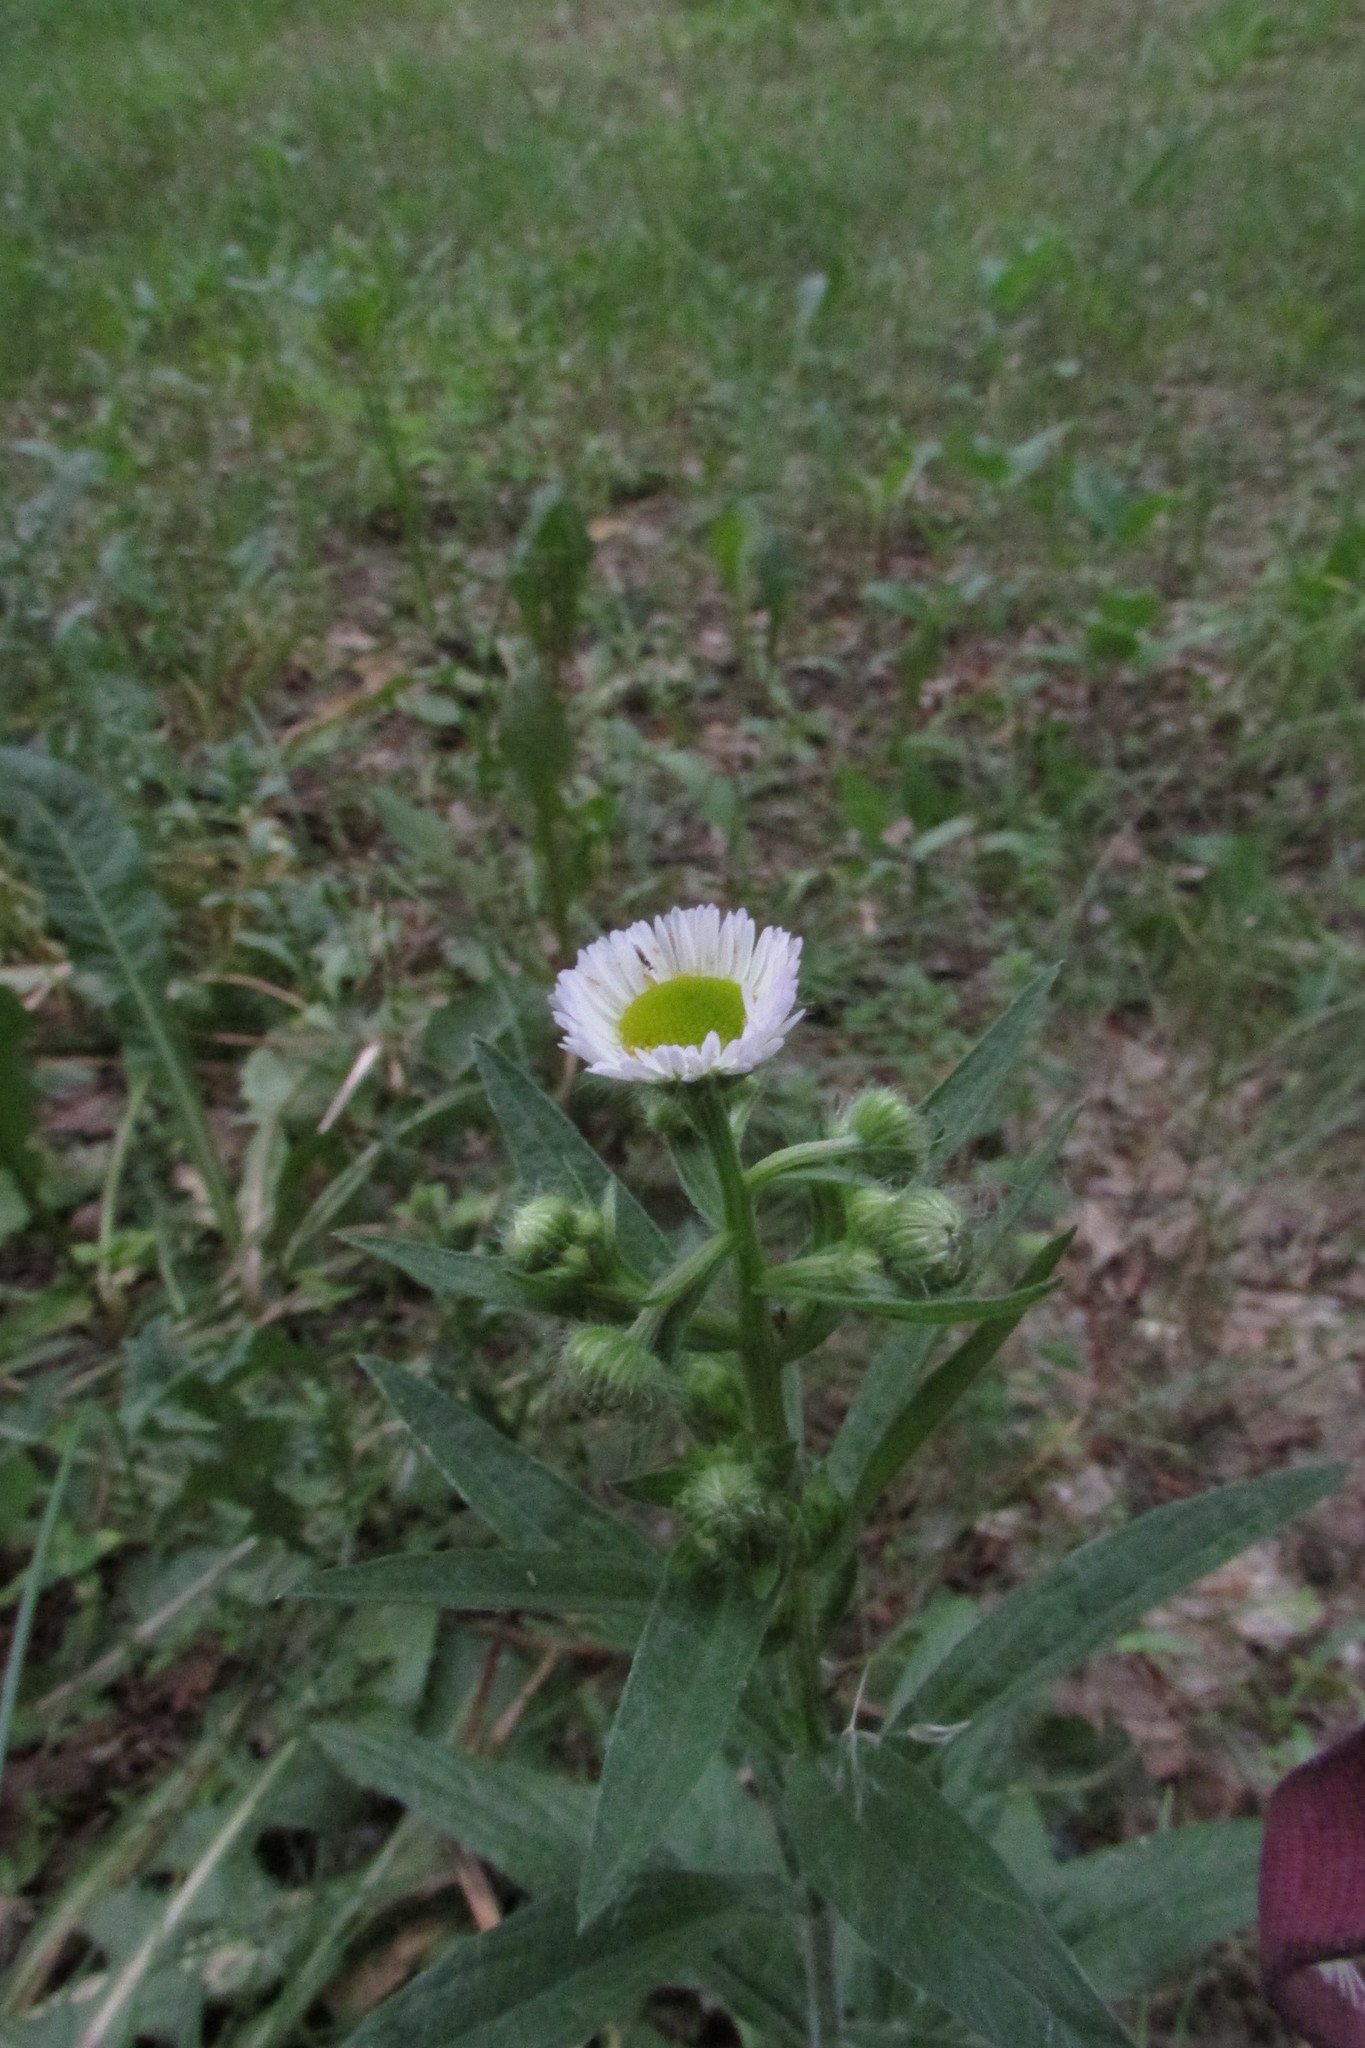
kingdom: Plantae
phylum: Tracheophyta
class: Magnoliopsida
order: Asterales
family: Asteraceae
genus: Erigeron
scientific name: Erigeron annuus
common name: Tall fleabane
